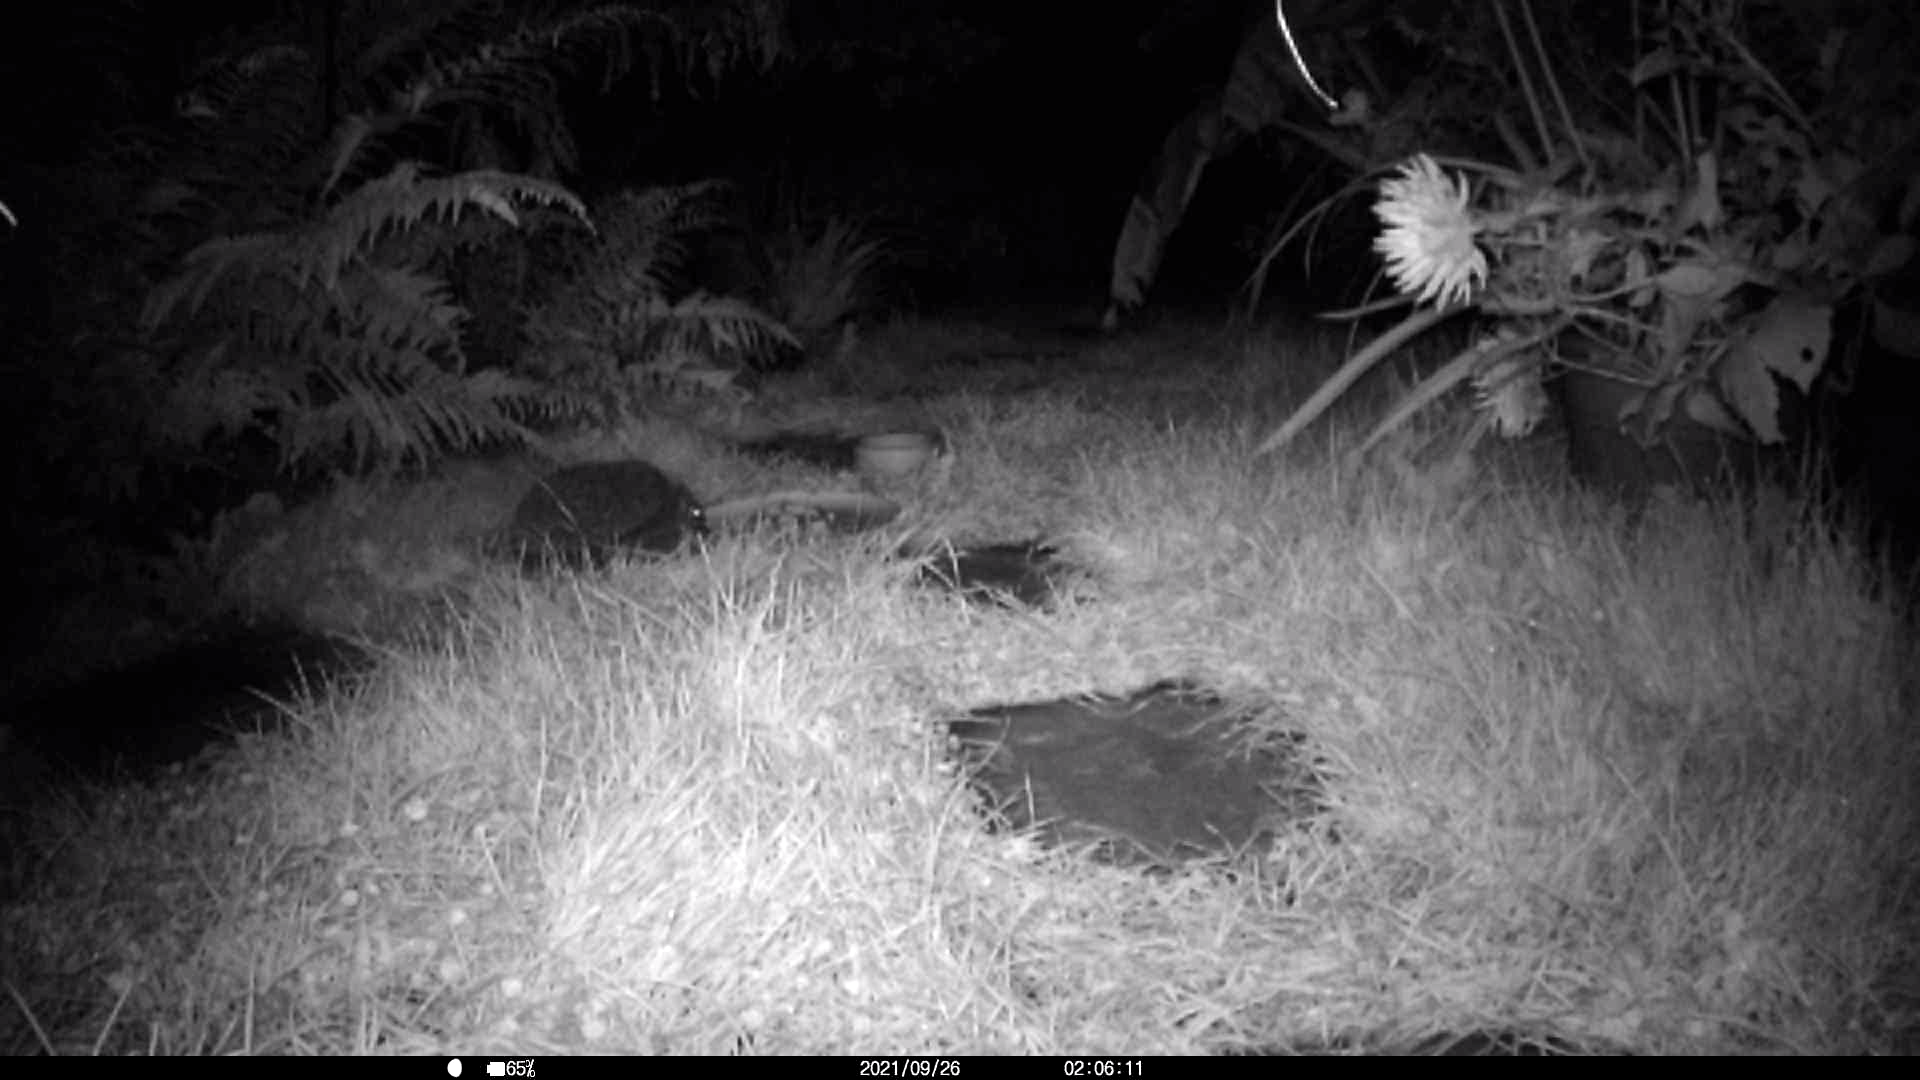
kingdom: Animalia
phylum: Chordata
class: Mammalia
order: Erinaceomorpha
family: Erinaceidae
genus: Erinaceus
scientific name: Erinaceus europaeus
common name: West european hedgehog
